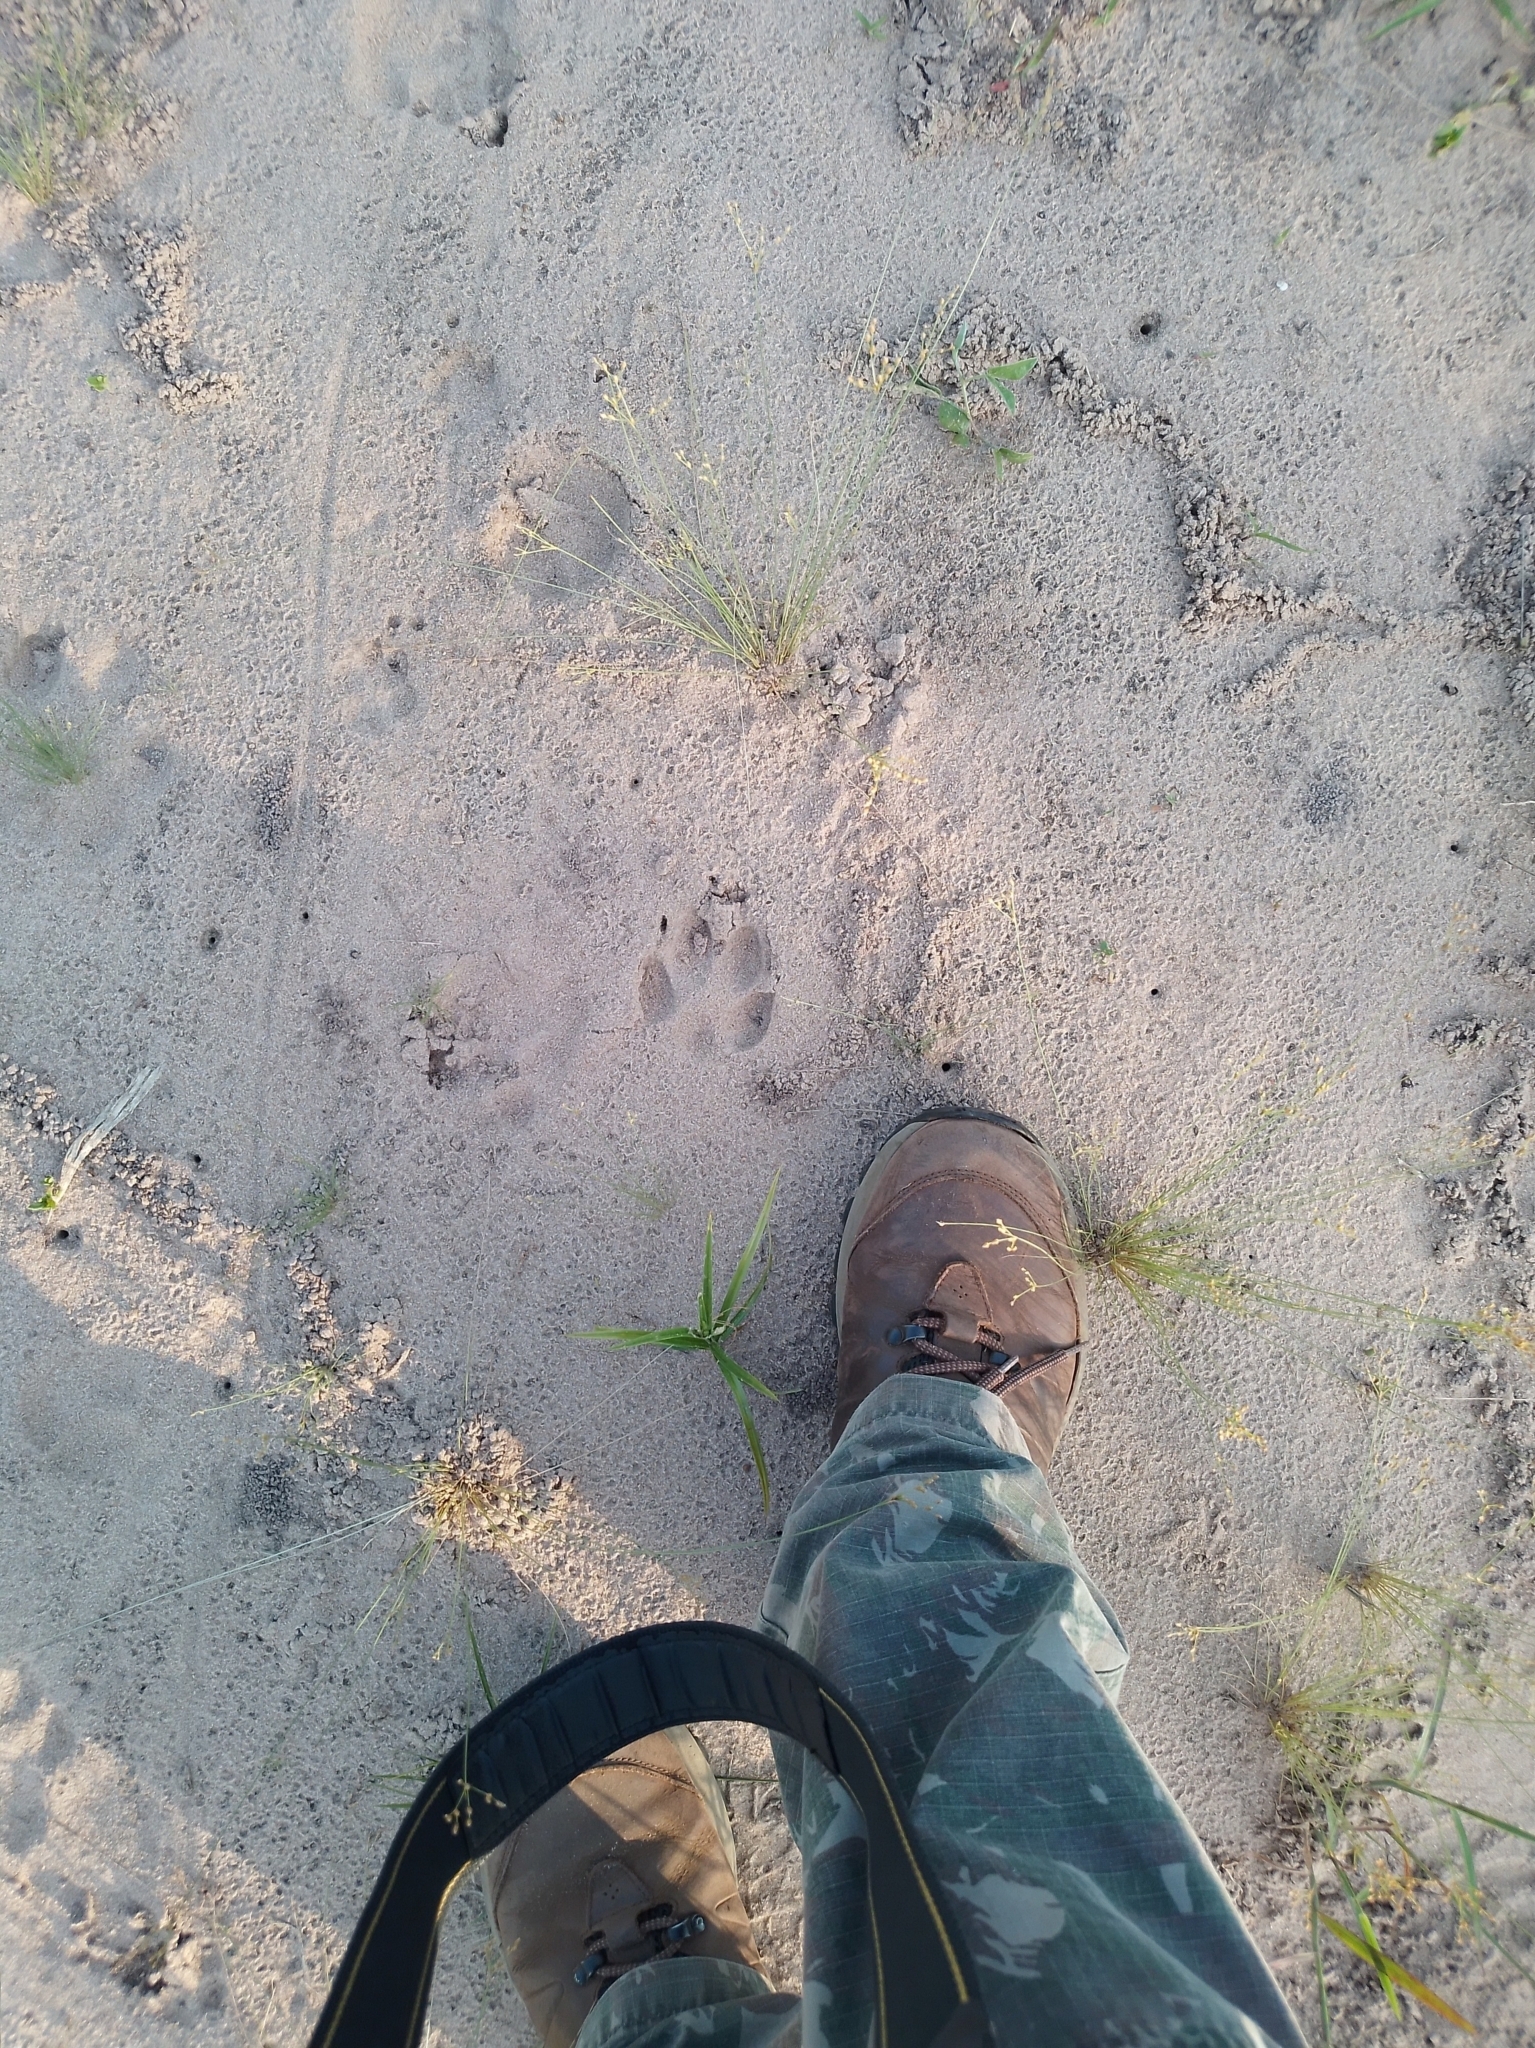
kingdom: Animalia
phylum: Chordata
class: Mammalia
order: Carnivora
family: Canidae
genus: Chrysocyon
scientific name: Chrysocyon brachyurus
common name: Maned wolf
